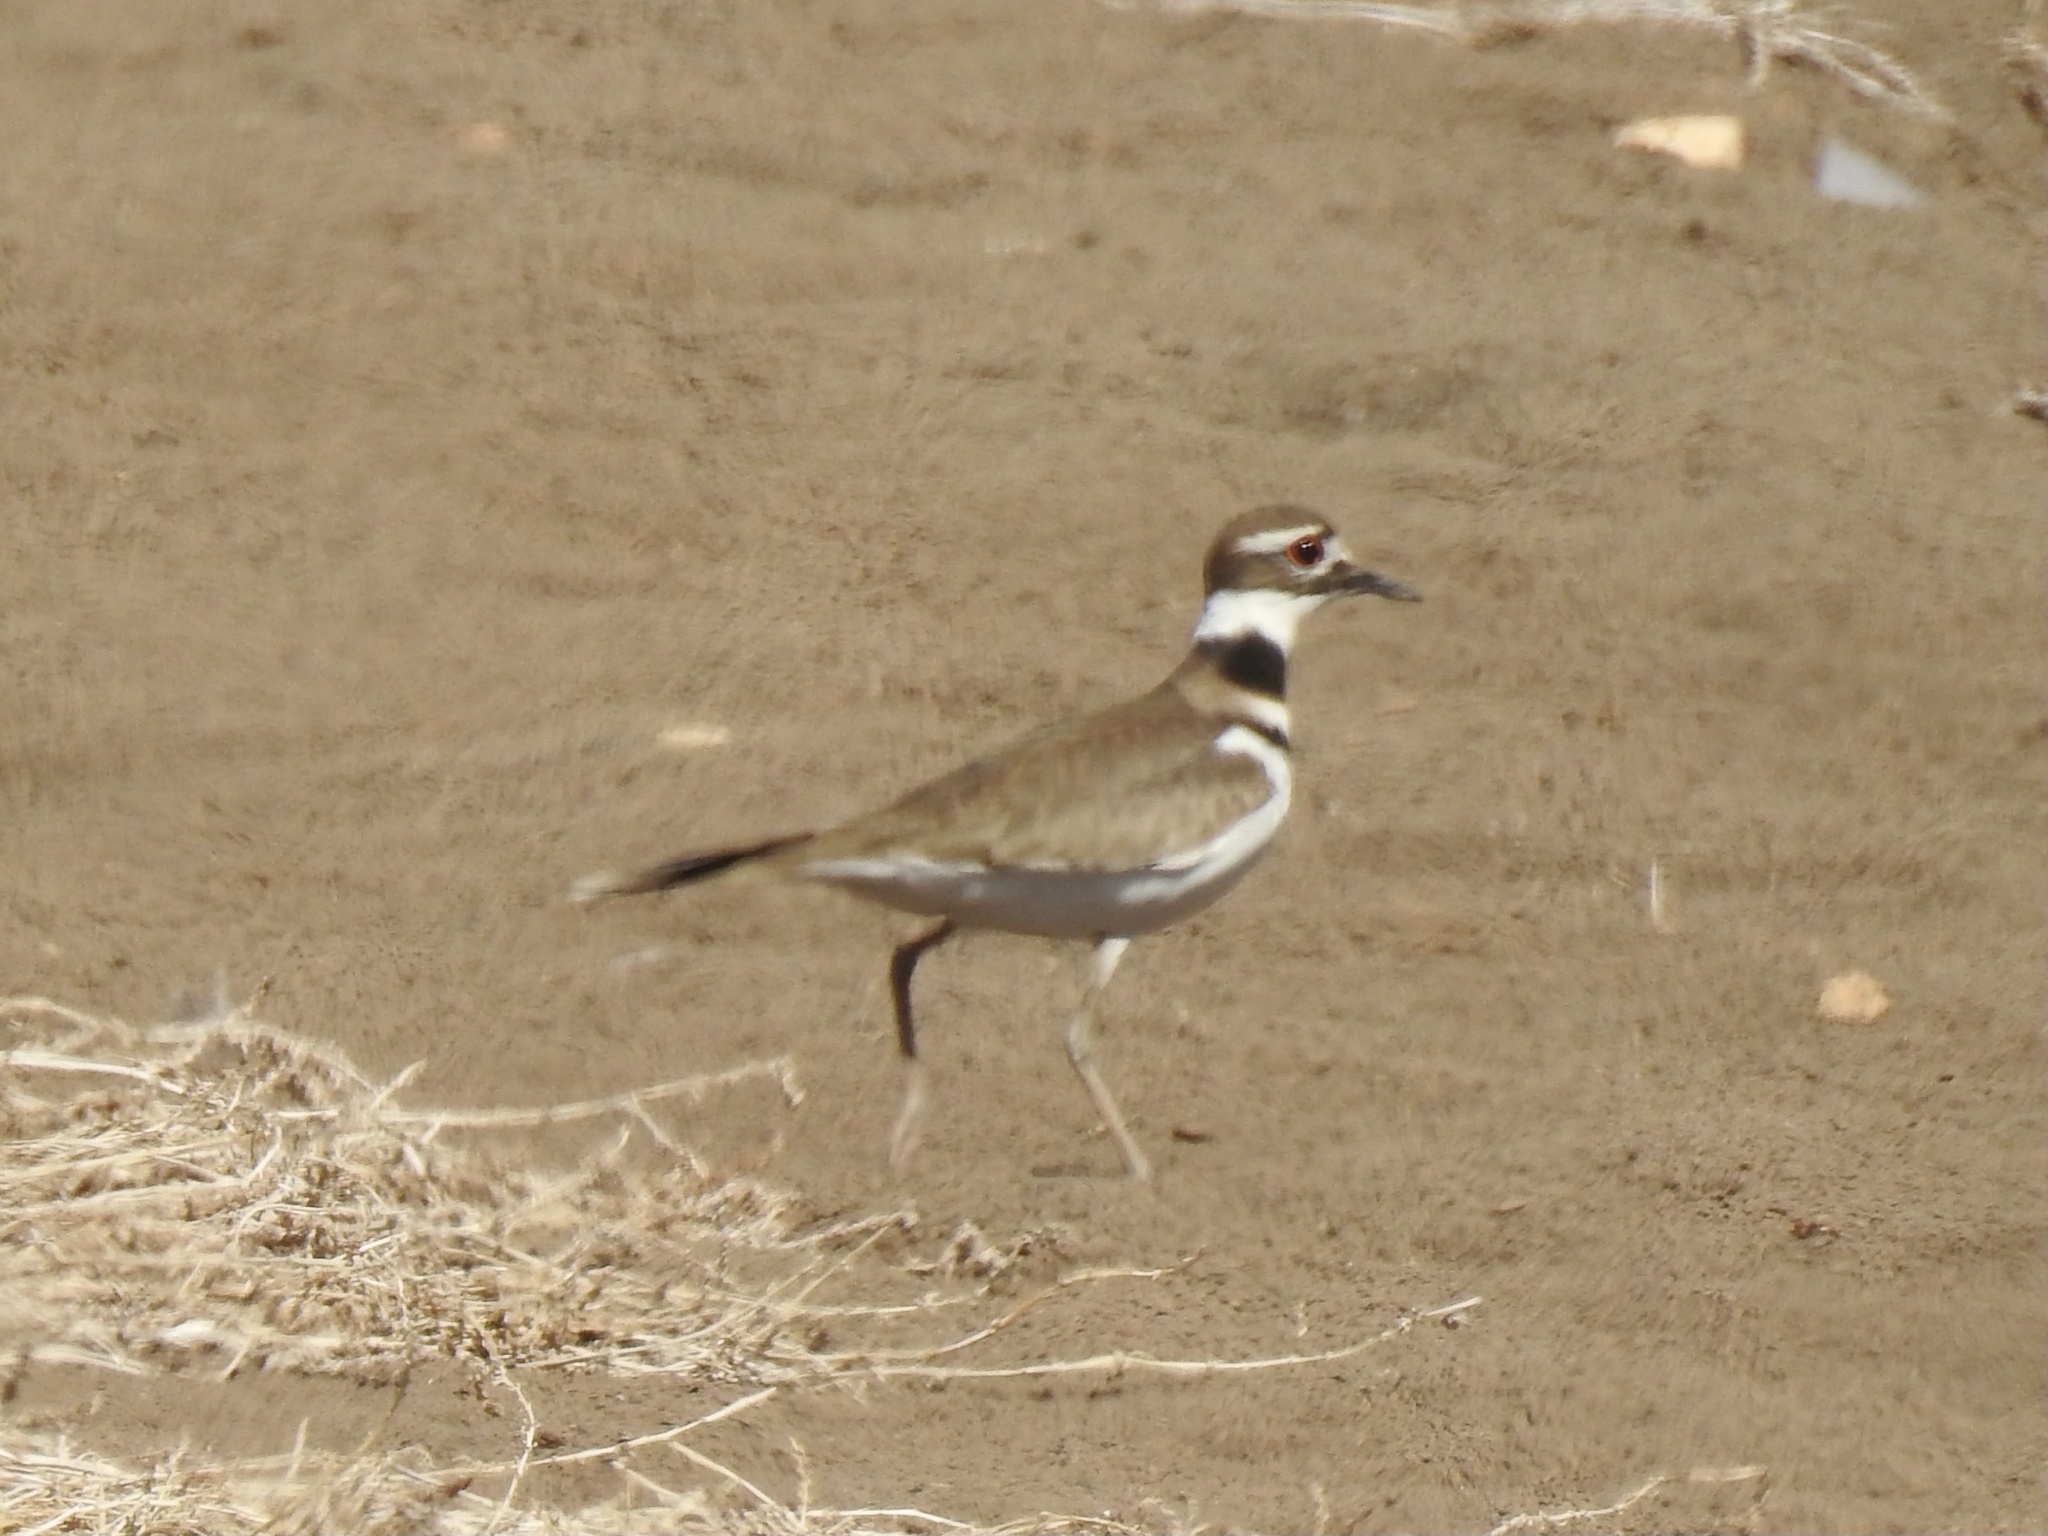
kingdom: Animalia
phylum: Chordata
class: Aves
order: Charadriiformes
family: Charadriidae
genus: Charadrius
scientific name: Charadrius vociferus
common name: Killdeer
